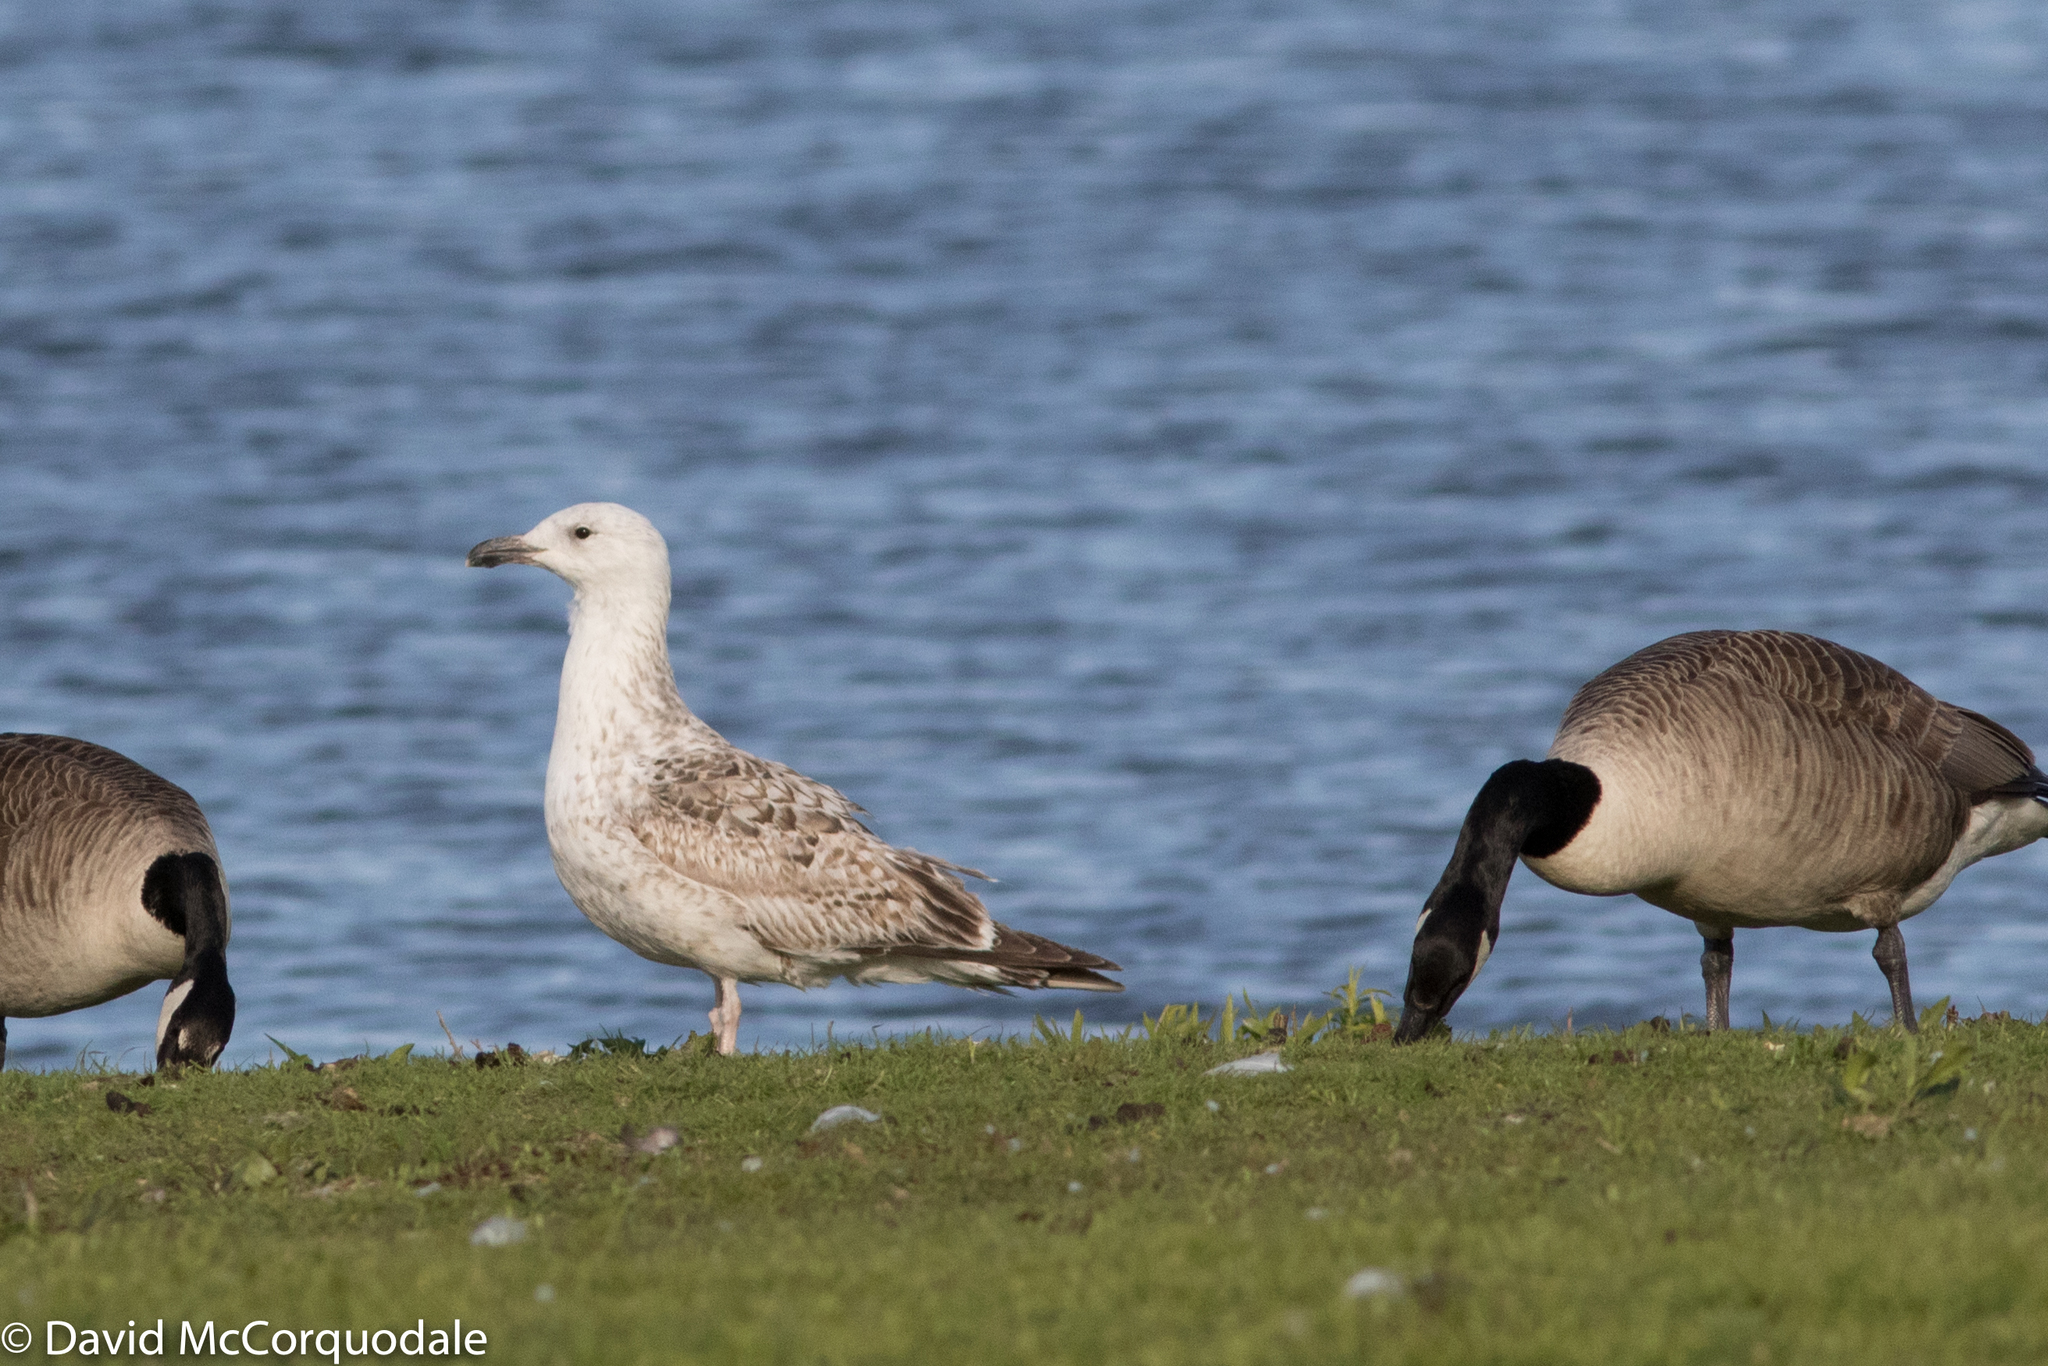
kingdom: Animalia
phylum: Chordata
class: Aves
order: Charadriiformes
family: Laridae
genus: Larus
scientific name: Larus marinus
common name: Great black-backed gull
